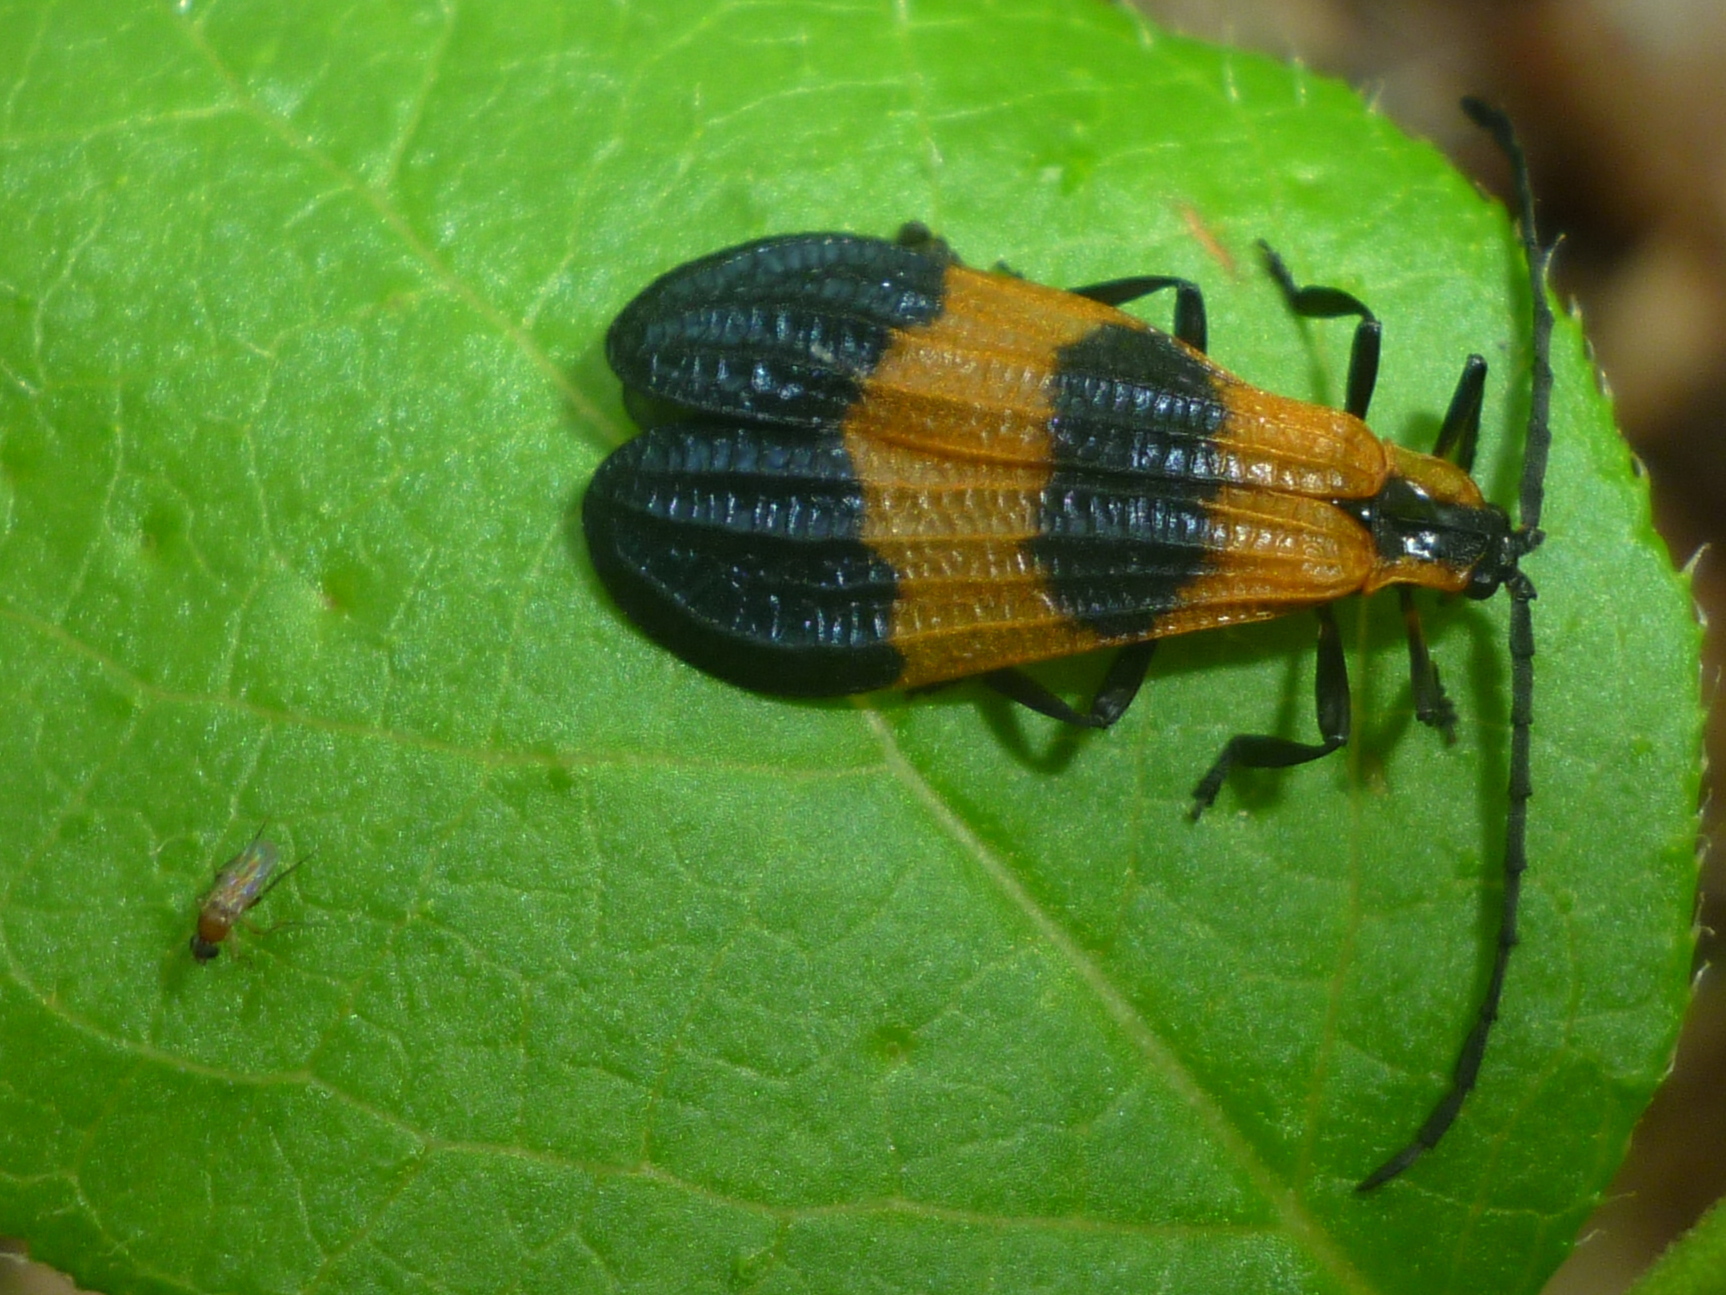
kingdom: Animalia
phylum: Arthropoda
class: Insecta
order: Coleoptera
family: Lycidae
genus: Calopteron
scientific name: Calopteron terminale
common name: End band net-winged beetle
